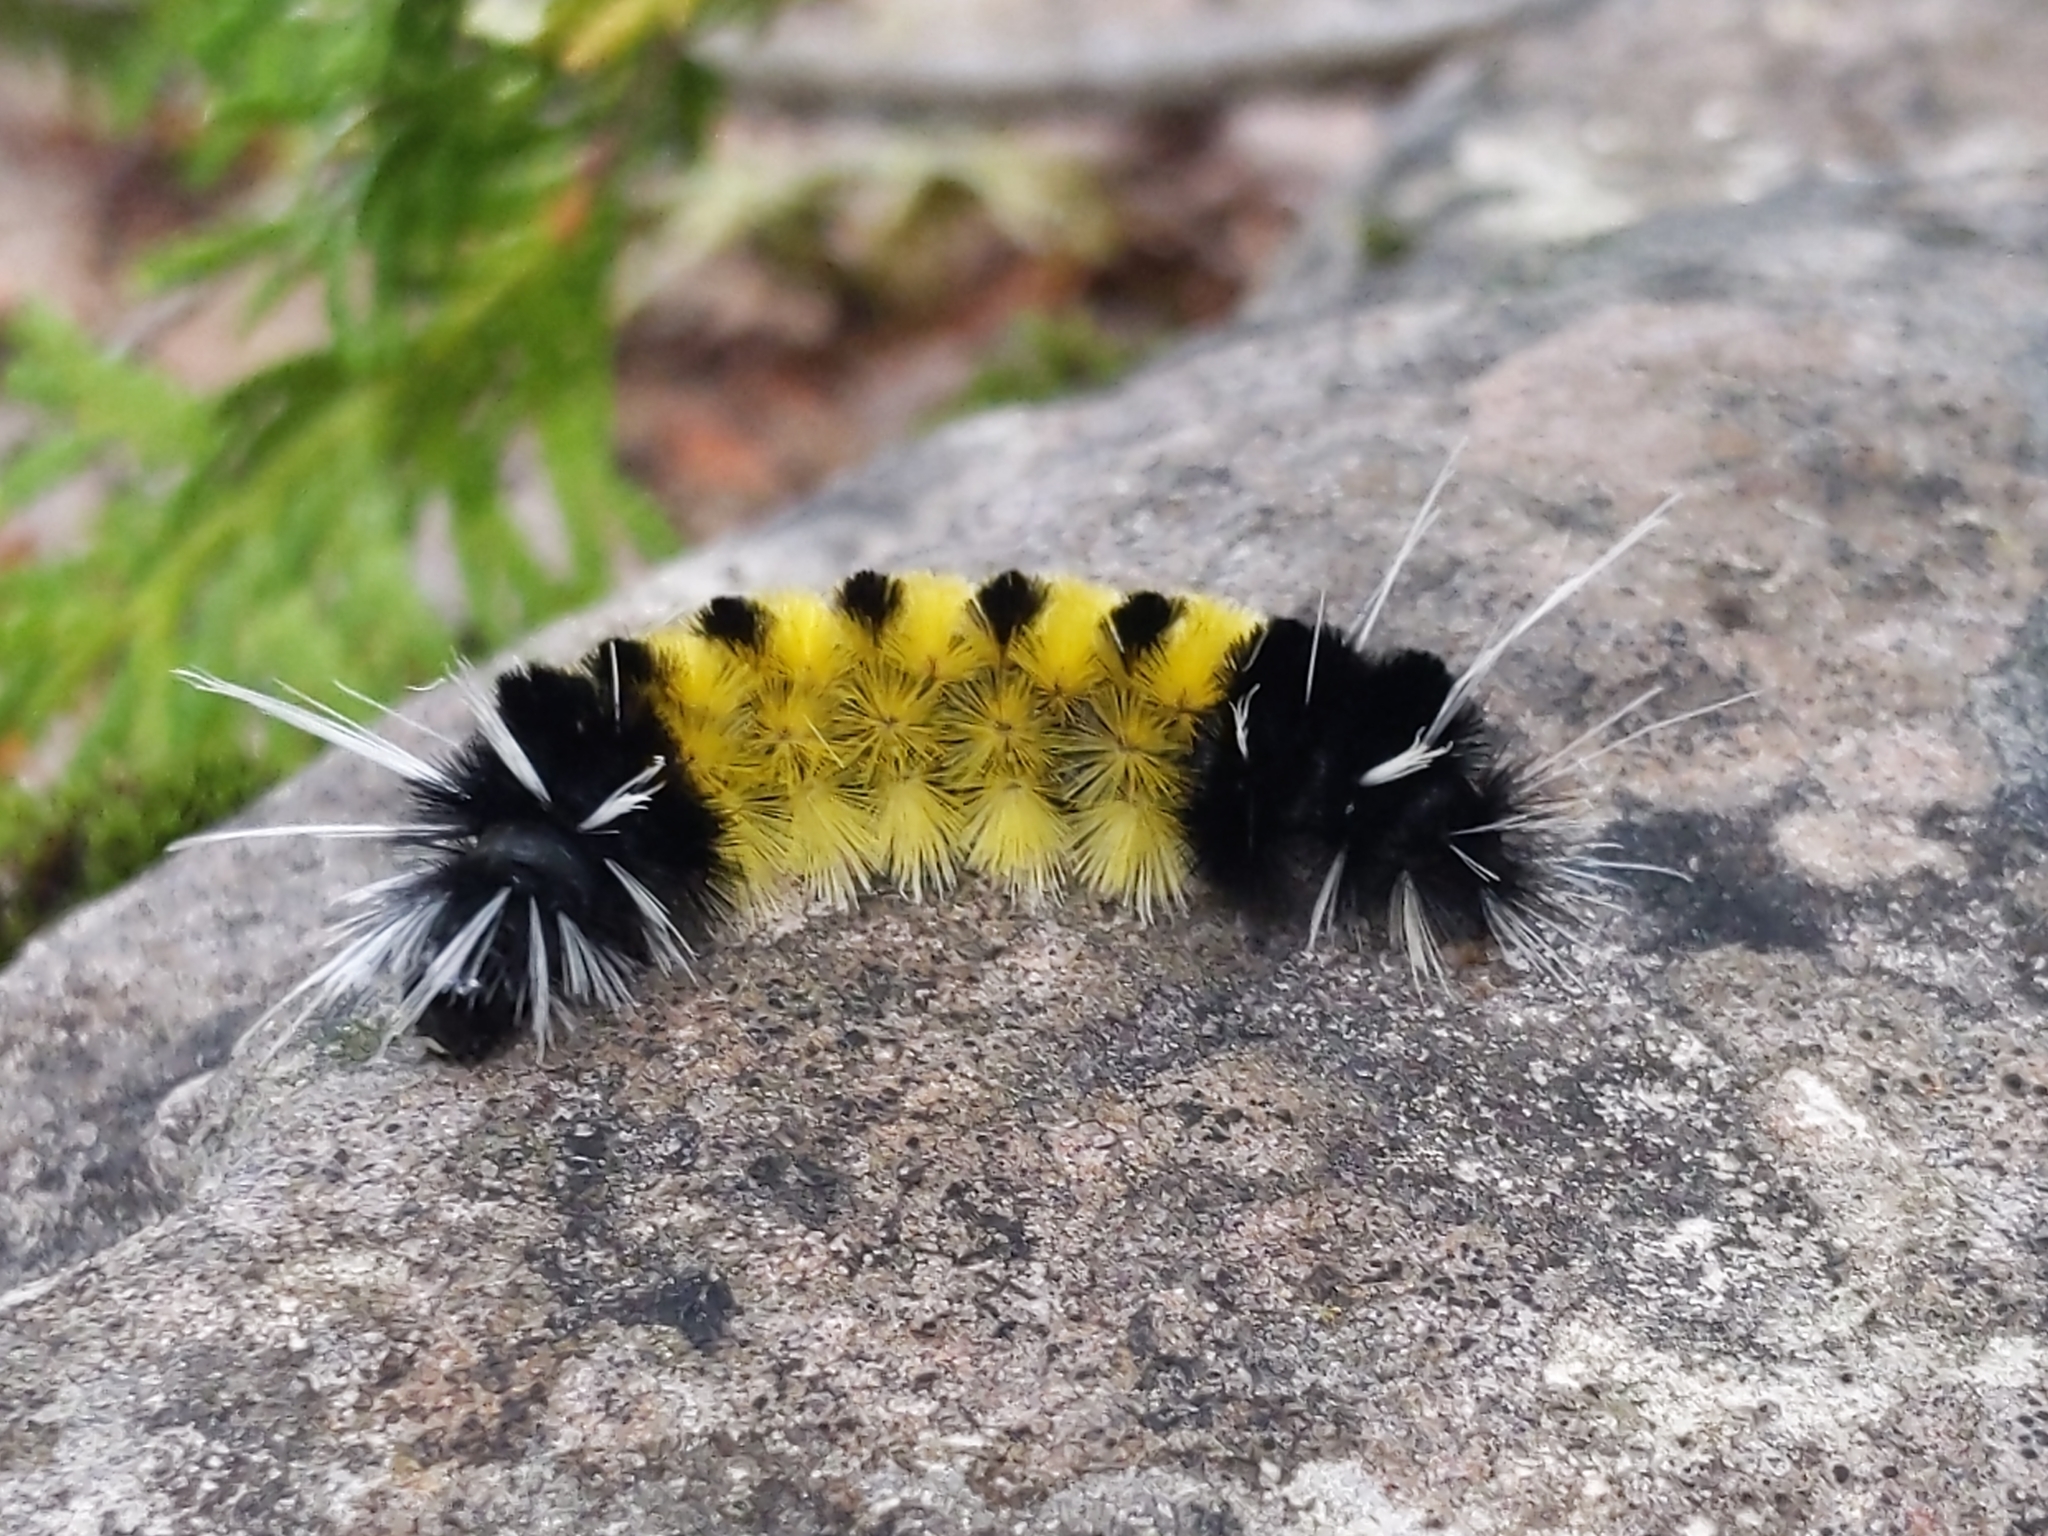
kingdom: Animalia
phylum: Arthropoda
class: Insecta
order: Lepidoptera
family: Erebidae
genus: Lophocampa
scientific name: Lophocampa maculata
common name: Spotted tussock moth
